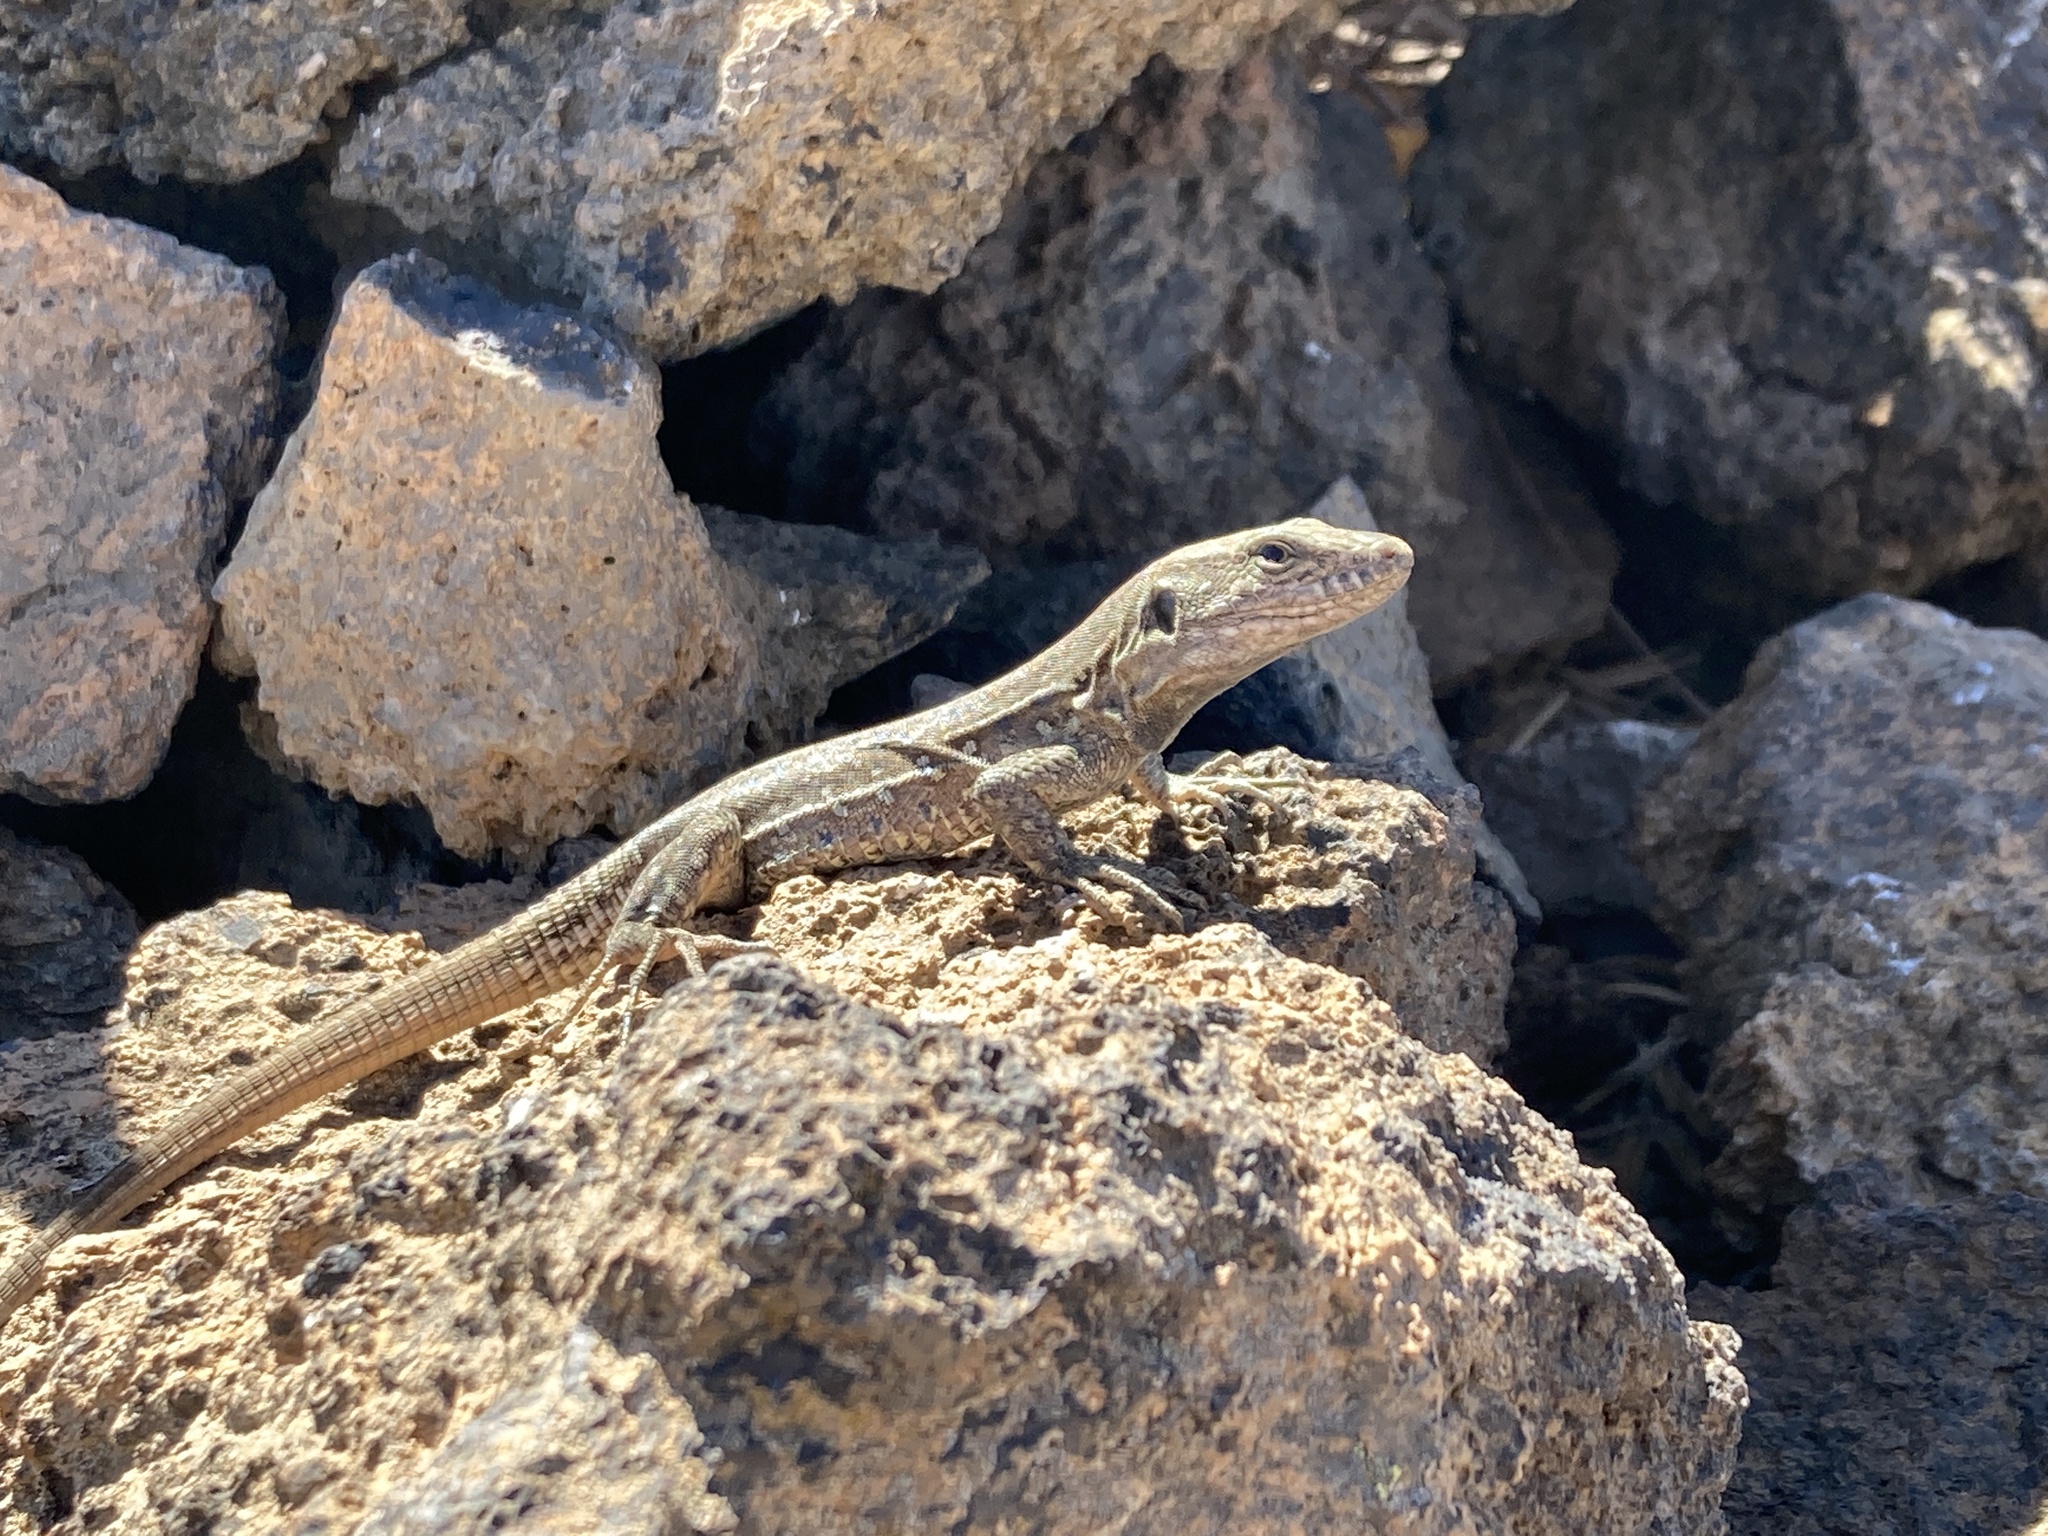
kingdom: Animalia
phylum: Chordata
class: Squamata
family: Lacertidae
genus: Gallotia
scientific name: Gallotia galloti
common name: Gallot's lizard
